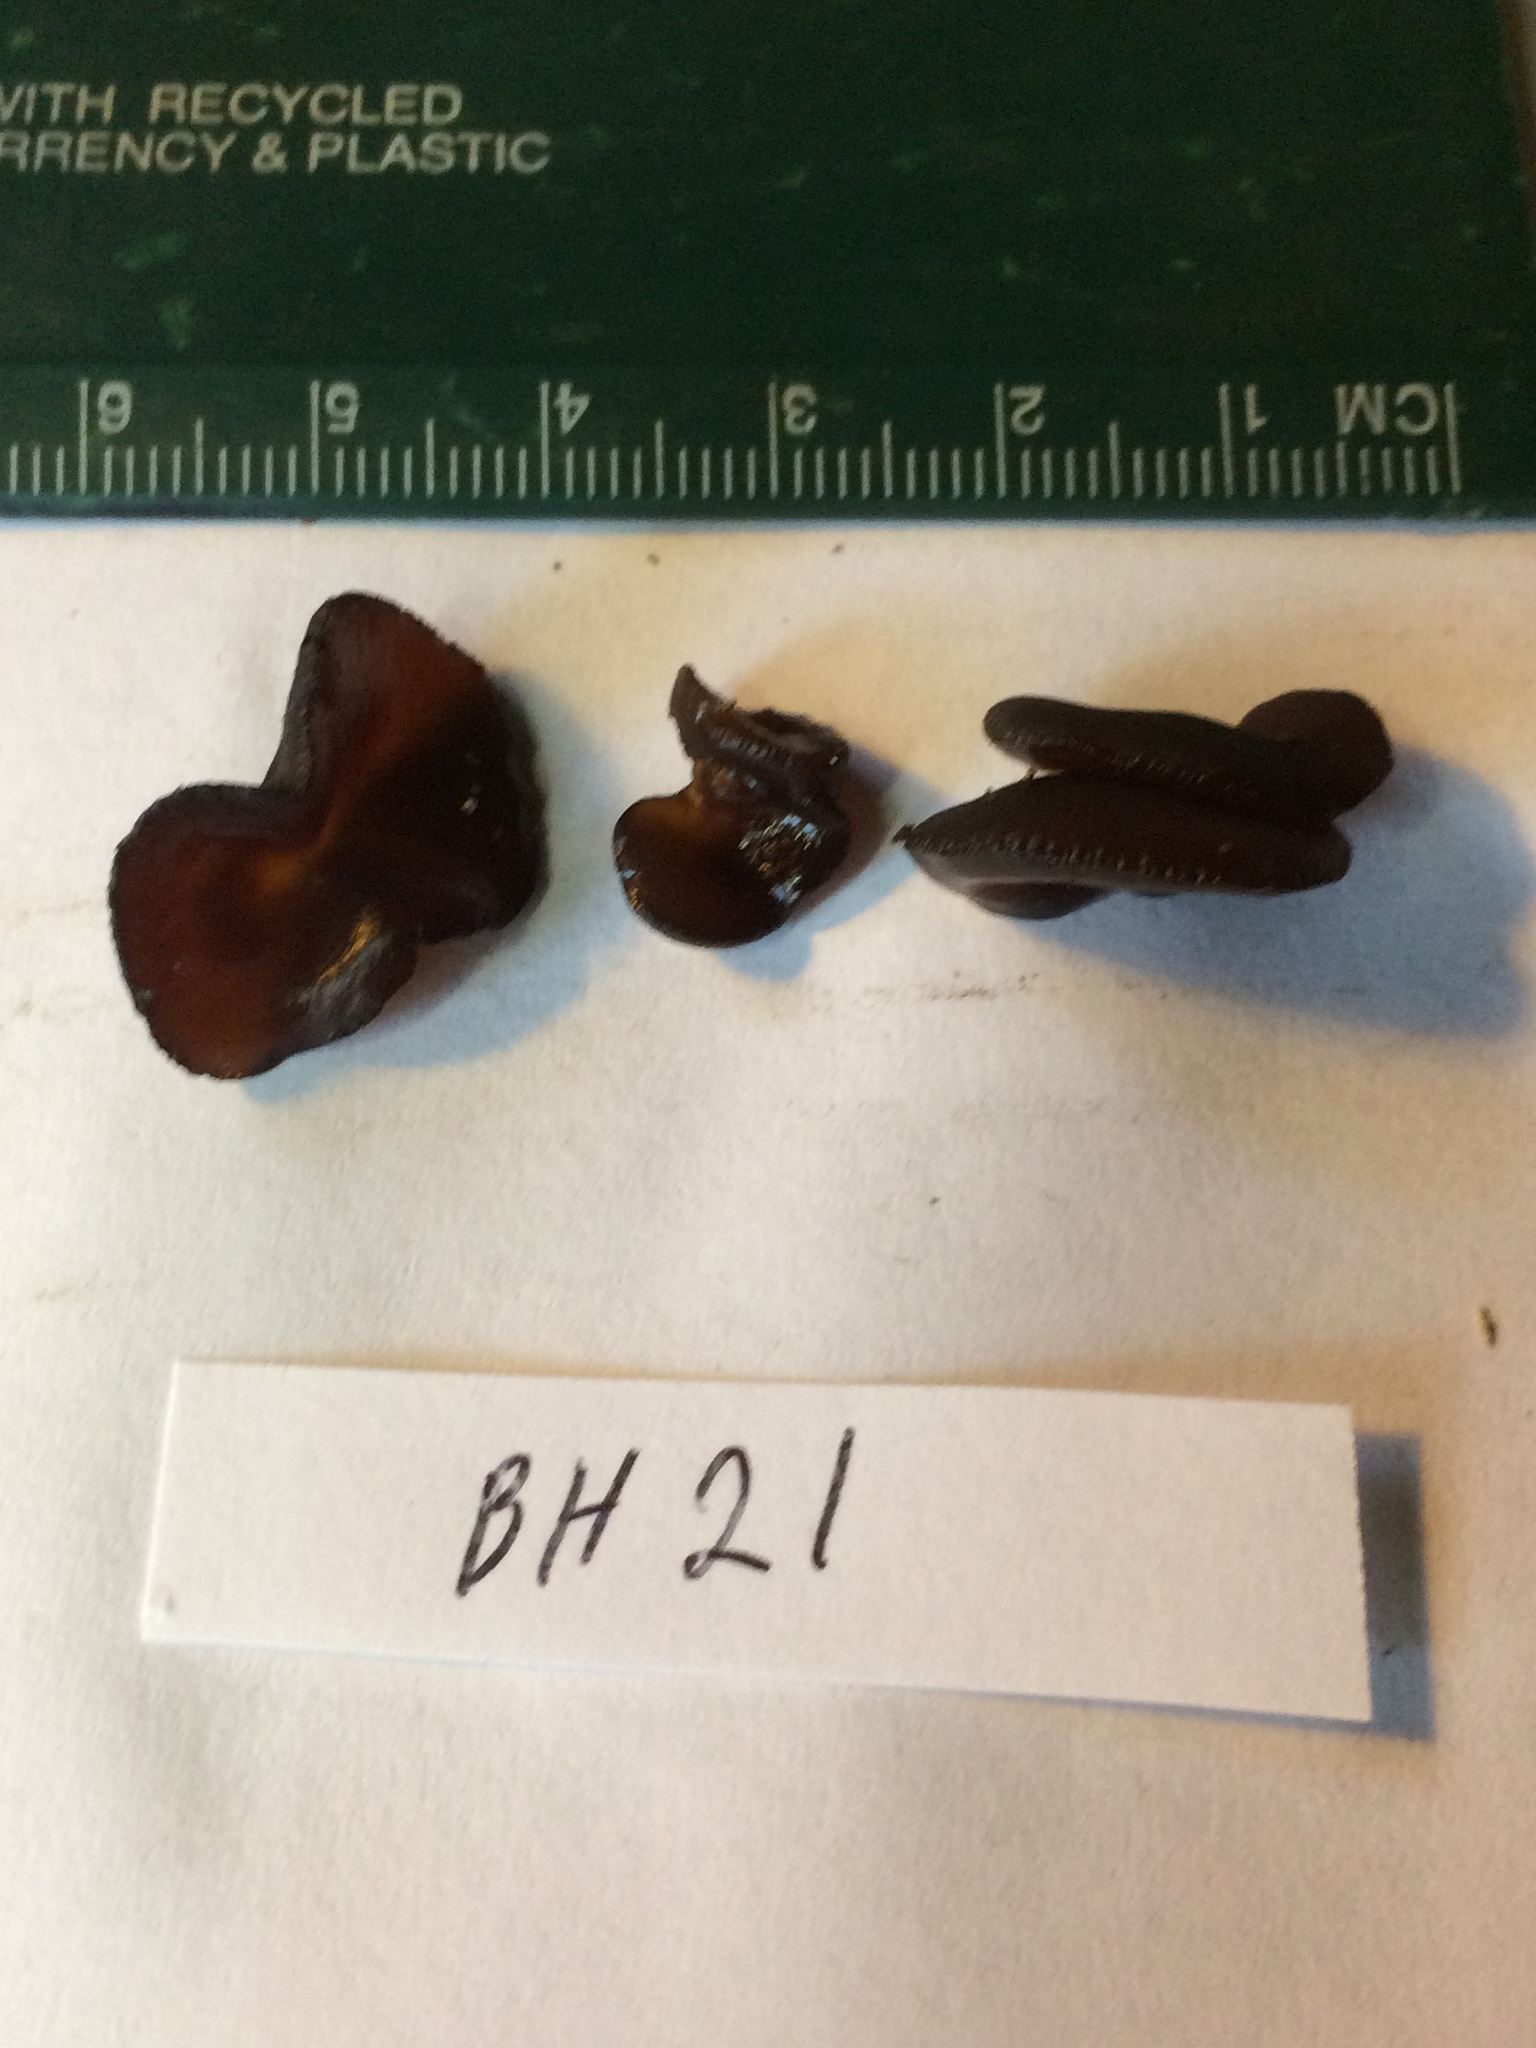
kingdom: Fungi
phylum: Basidiomycota
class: Agaricomycetes
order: Auriculariales
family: Auriculariaceae
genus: Exidia
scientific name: Exidia
